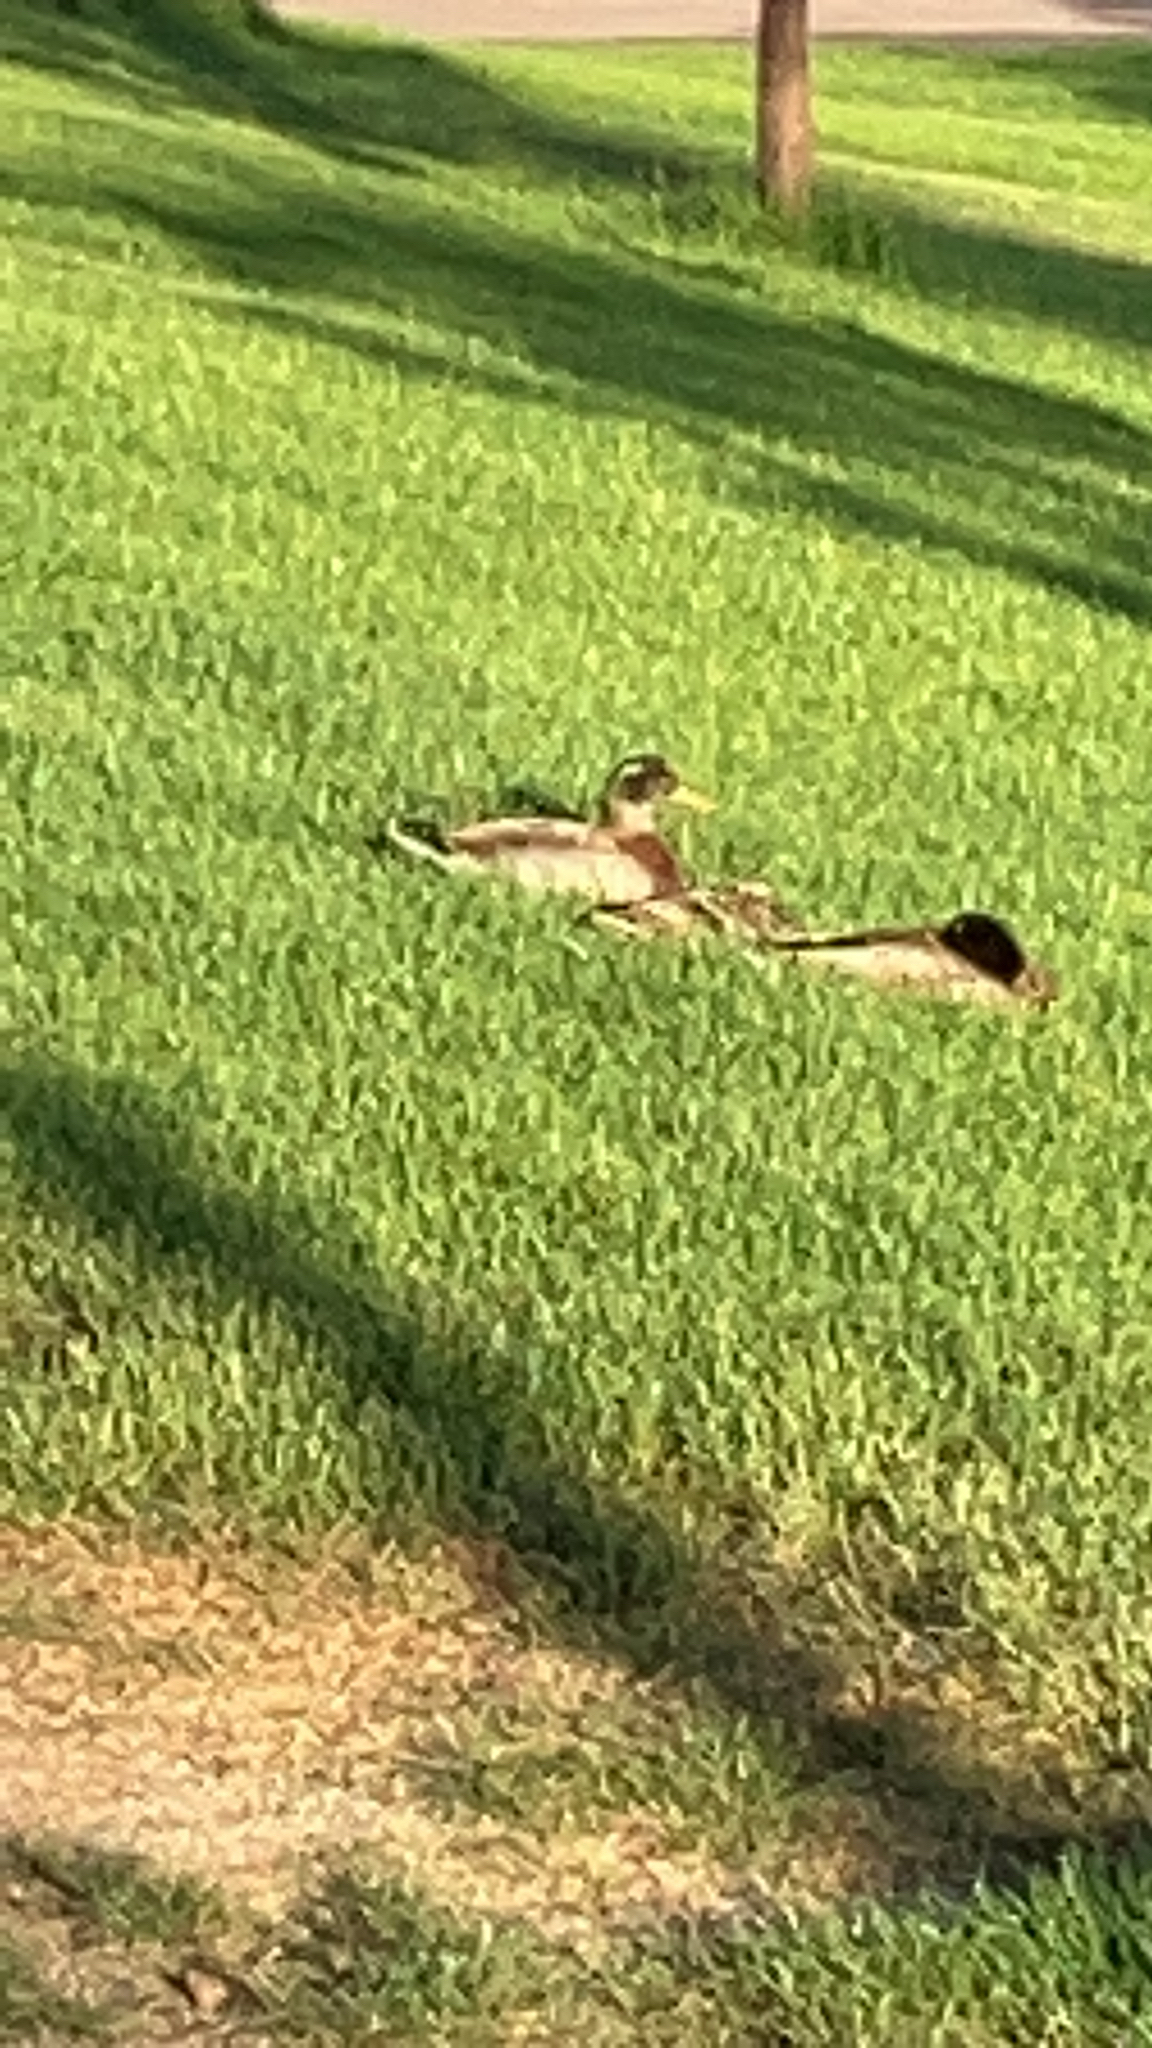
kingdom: Animalia
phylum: Chordata
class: Aves
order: Anseriformes
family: Anatidae
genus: Anas
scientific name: Anas platyrhynchos
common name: Mallard
